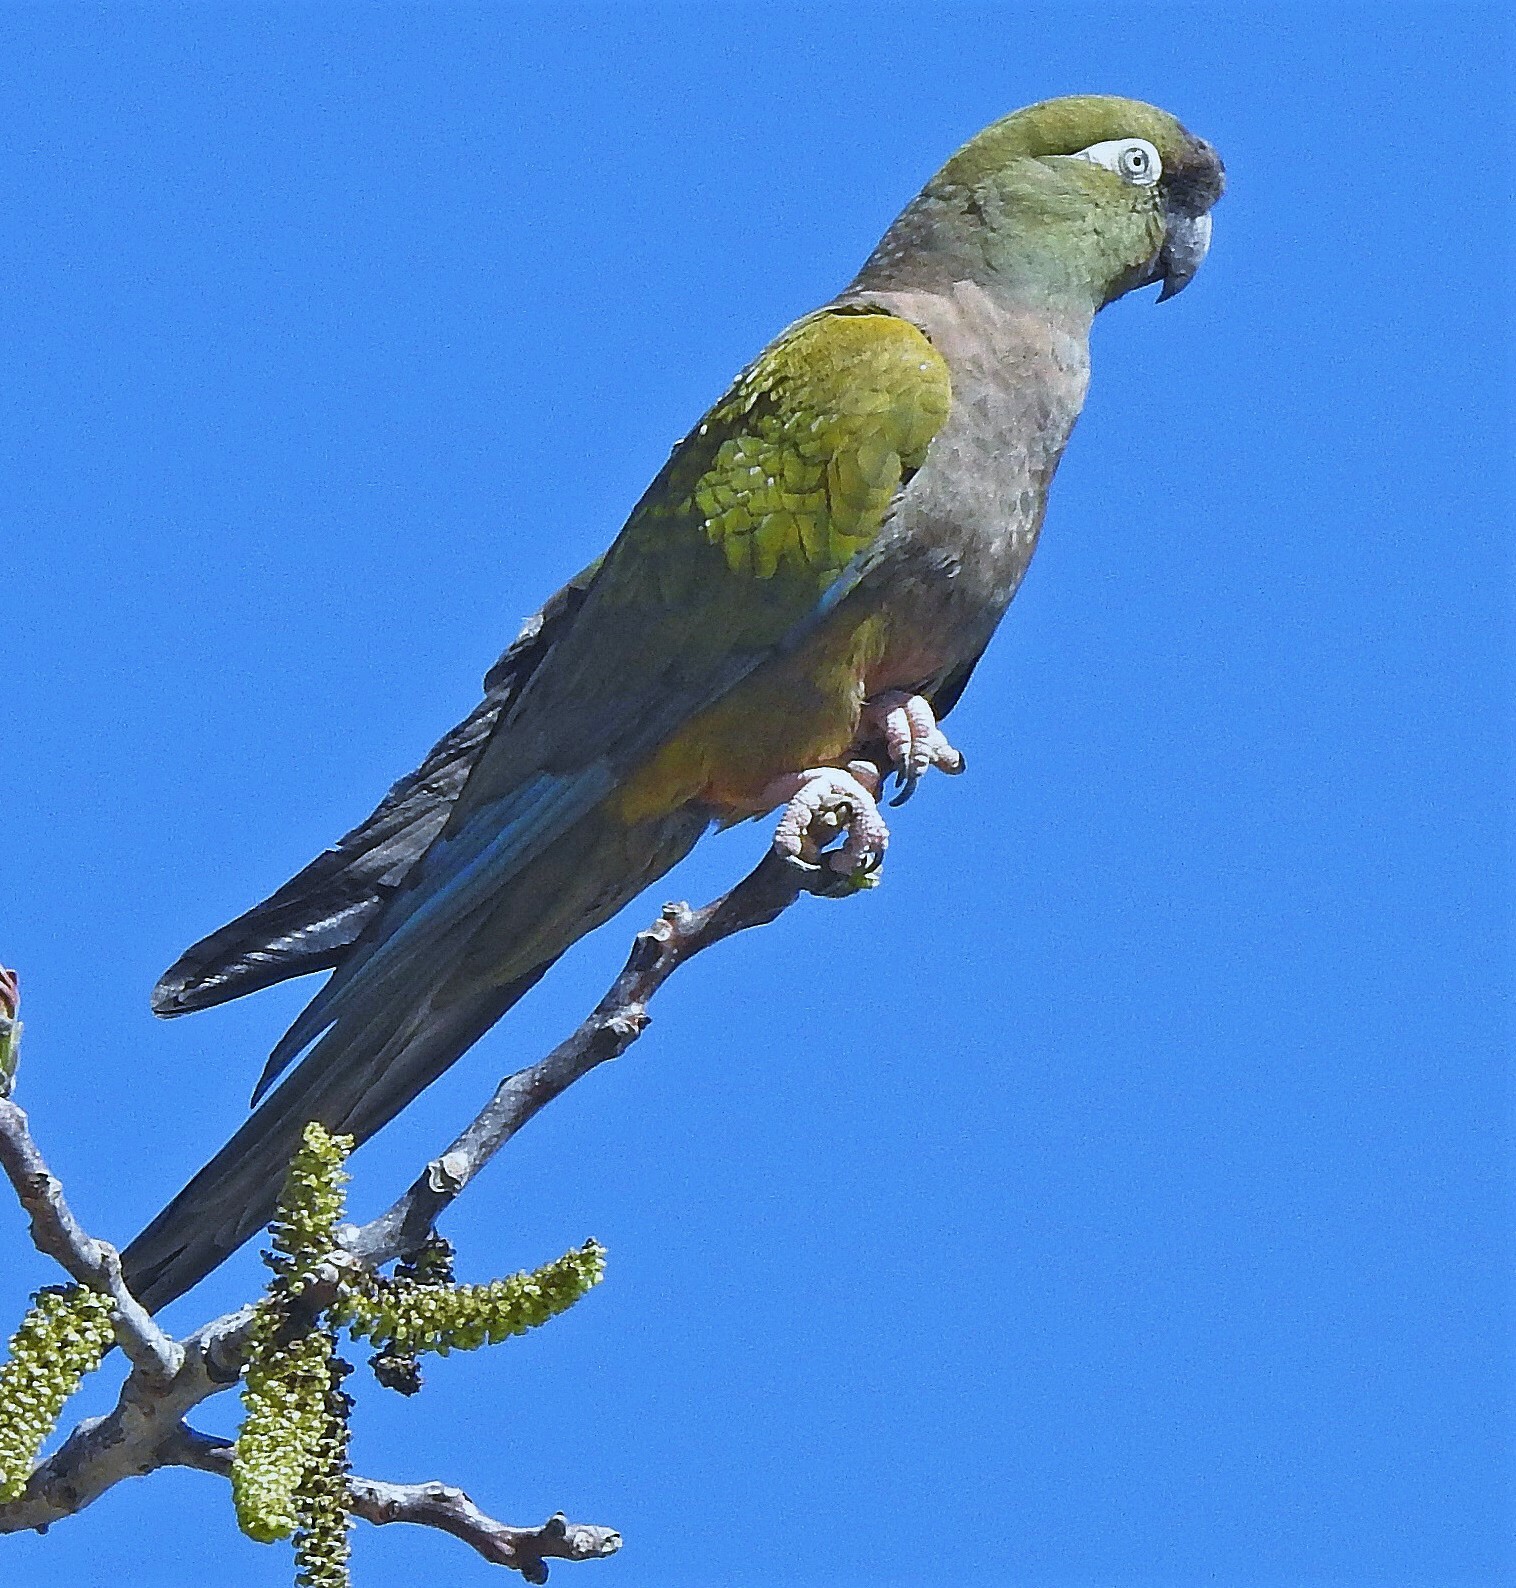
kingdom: Animalia
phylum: Chordata
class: Aves
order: Psittaciformes
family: Psittacidae
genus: Cyanoliseus
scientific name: Cyanoliseus patagonus
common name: Burrowing parrot
